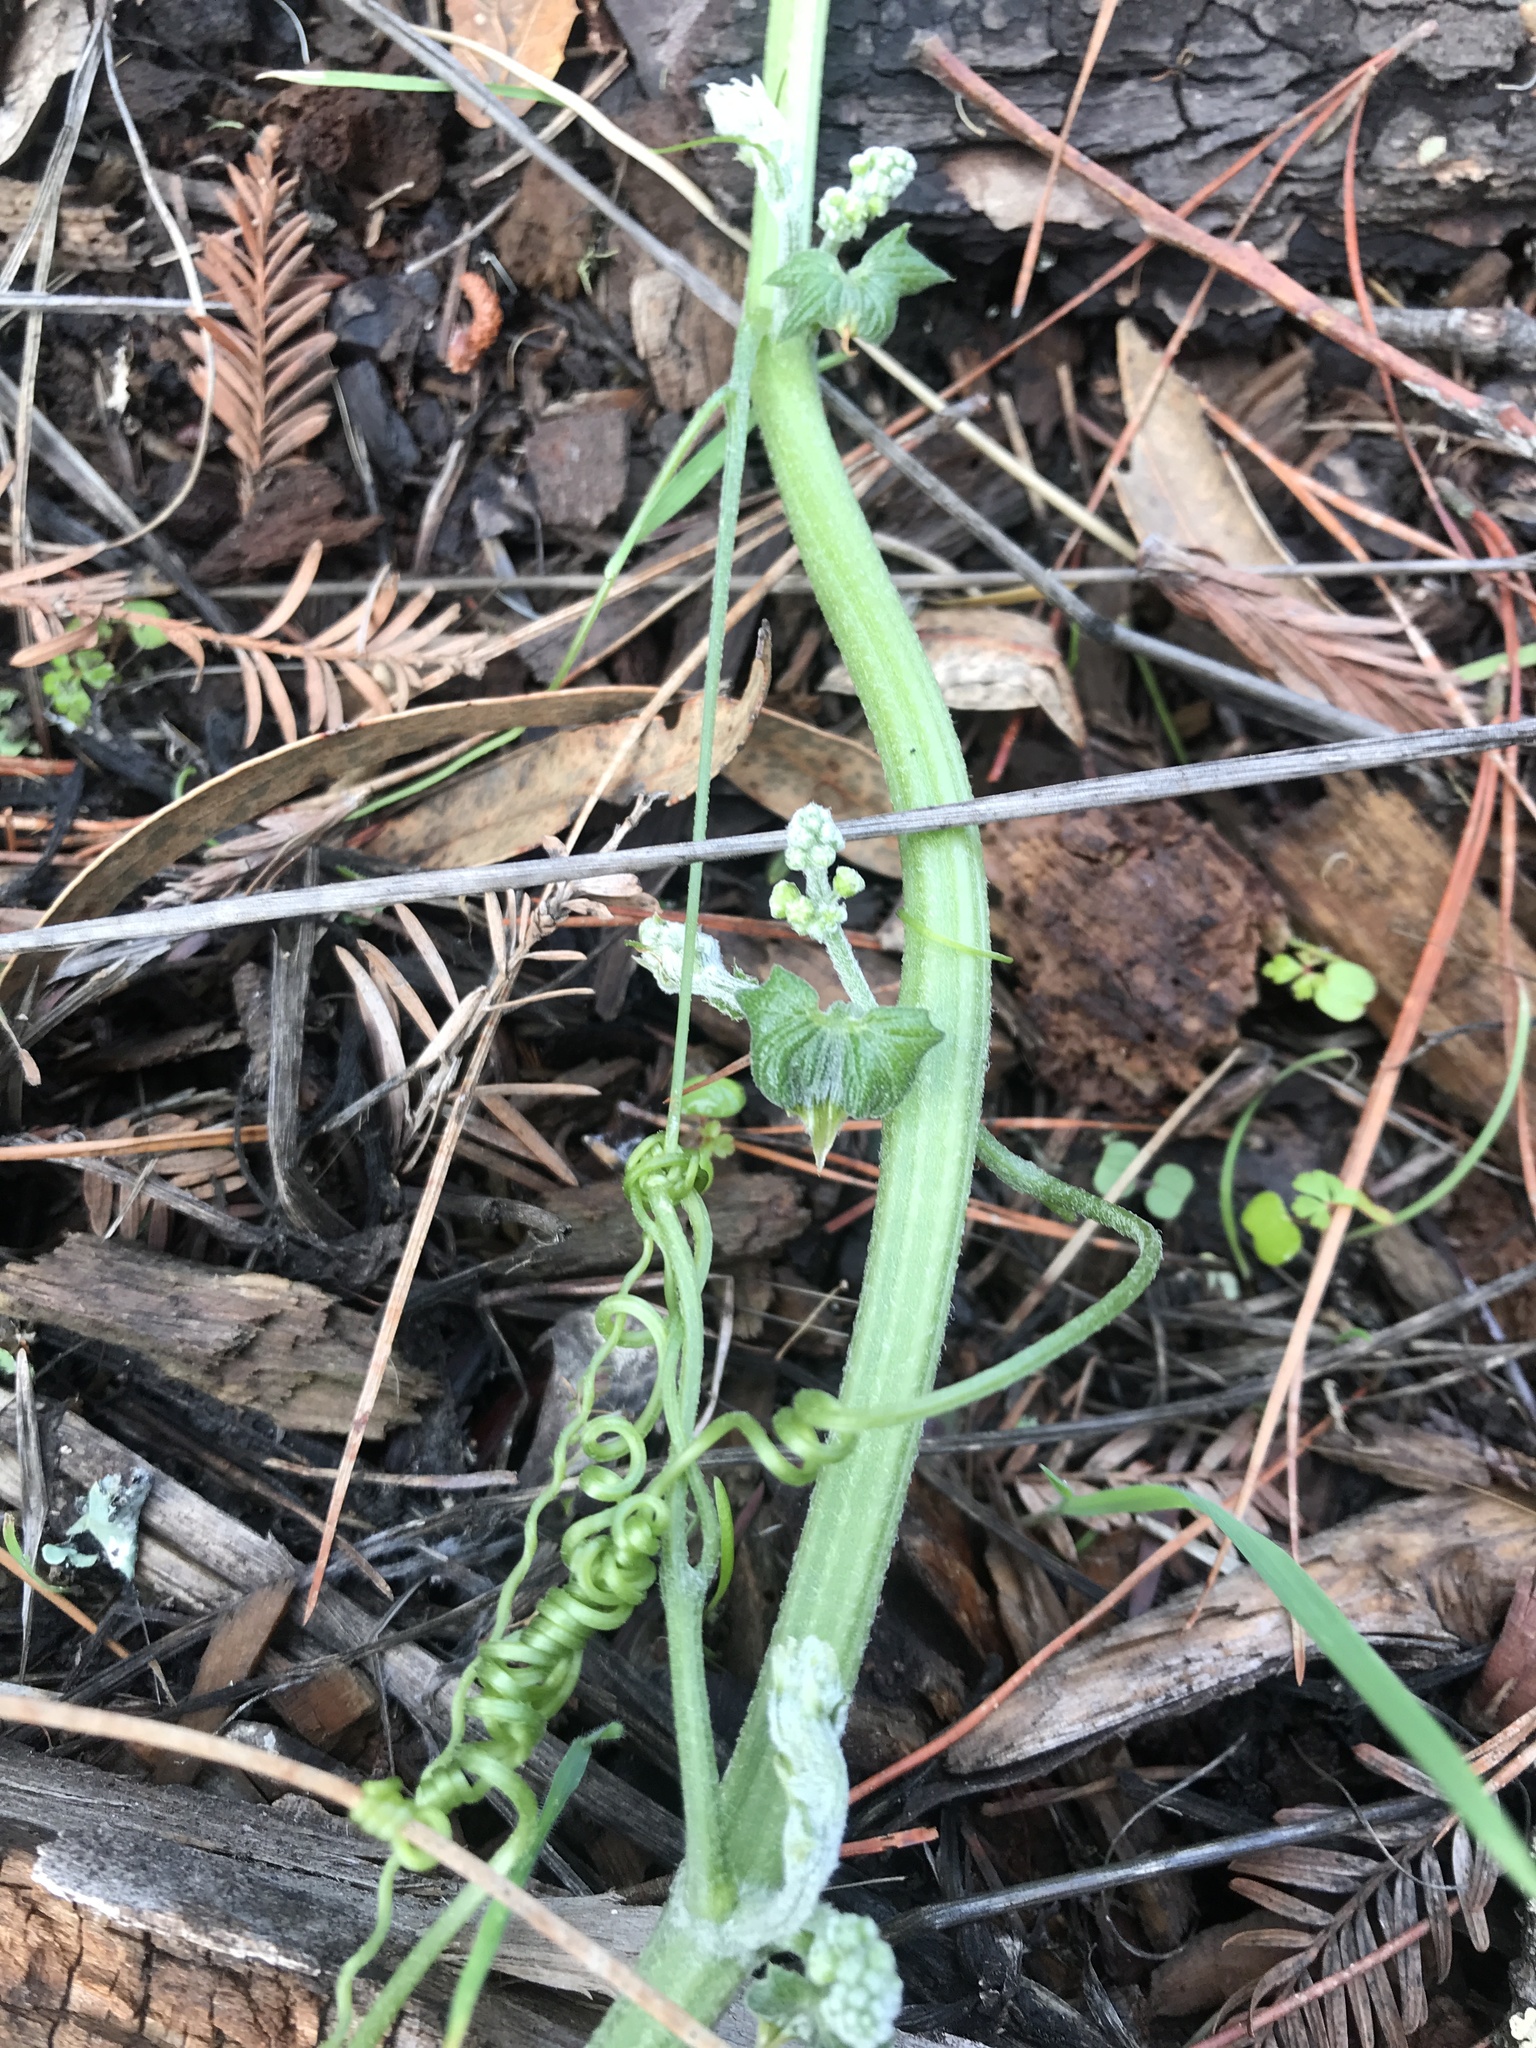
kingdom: Plantae
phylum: Tracheophyta
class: Magnoliopsida
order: Cucurbitales
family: Cucurbitaceae
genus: Marah
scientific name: Marah
